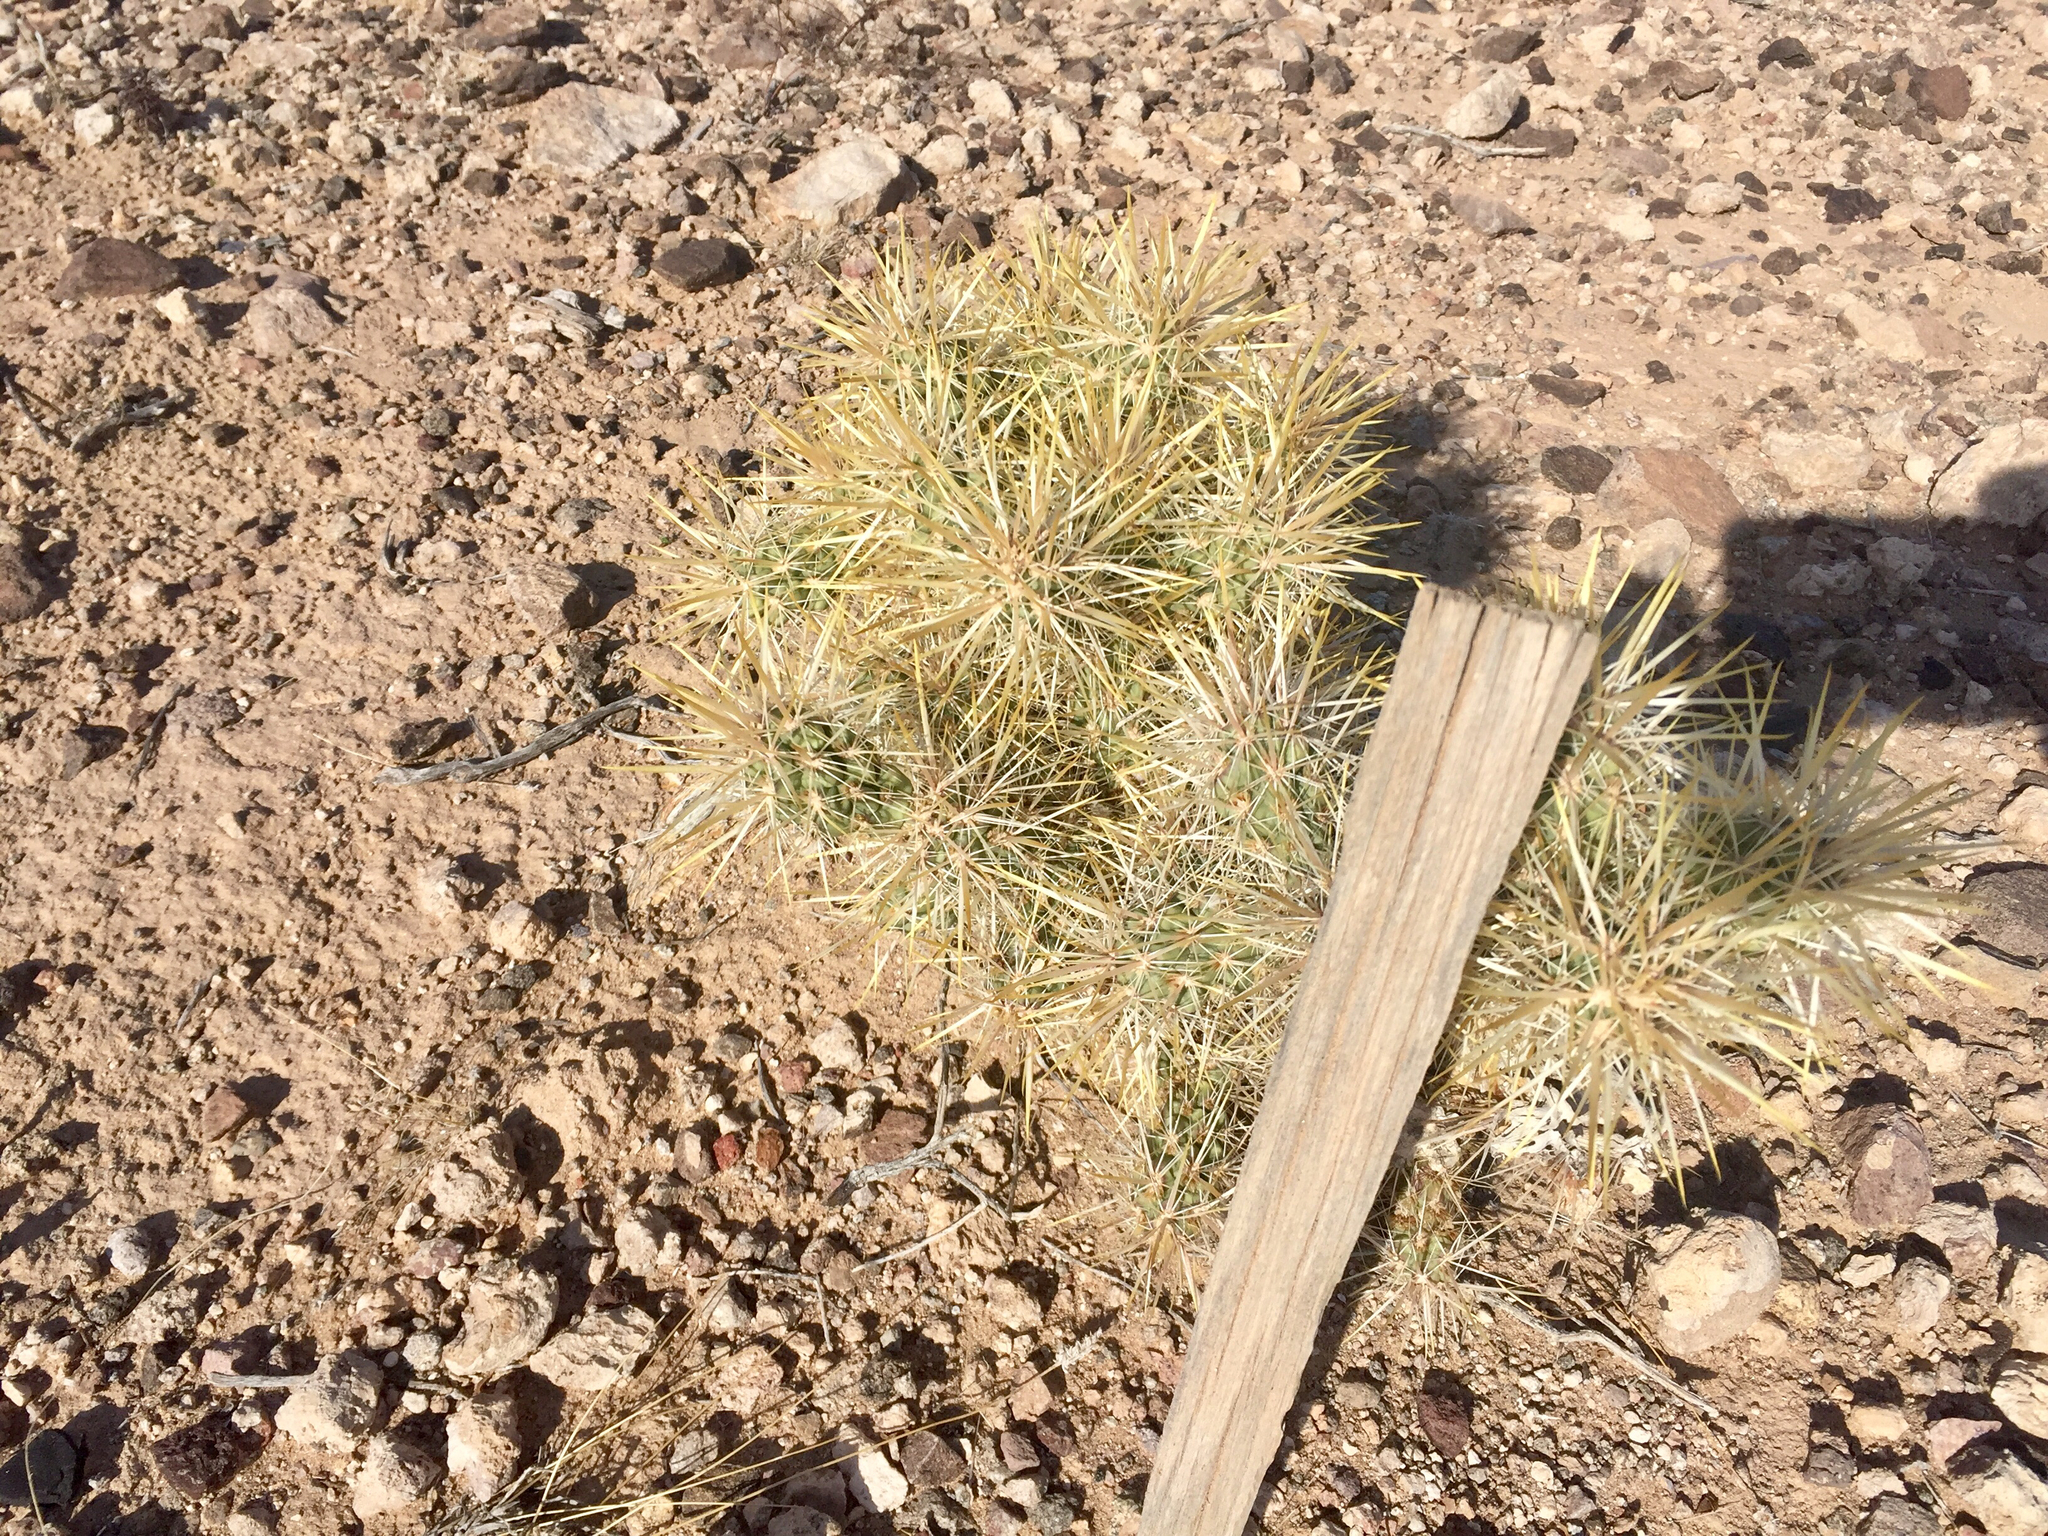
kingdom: Plantae
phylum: Tracheophyta
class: Magnoliopsida
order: Caryophyllales
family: Cactaceae
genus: Cylindropuntia
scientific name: Cylindropuntia echinocarpa
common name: Ground cholla
